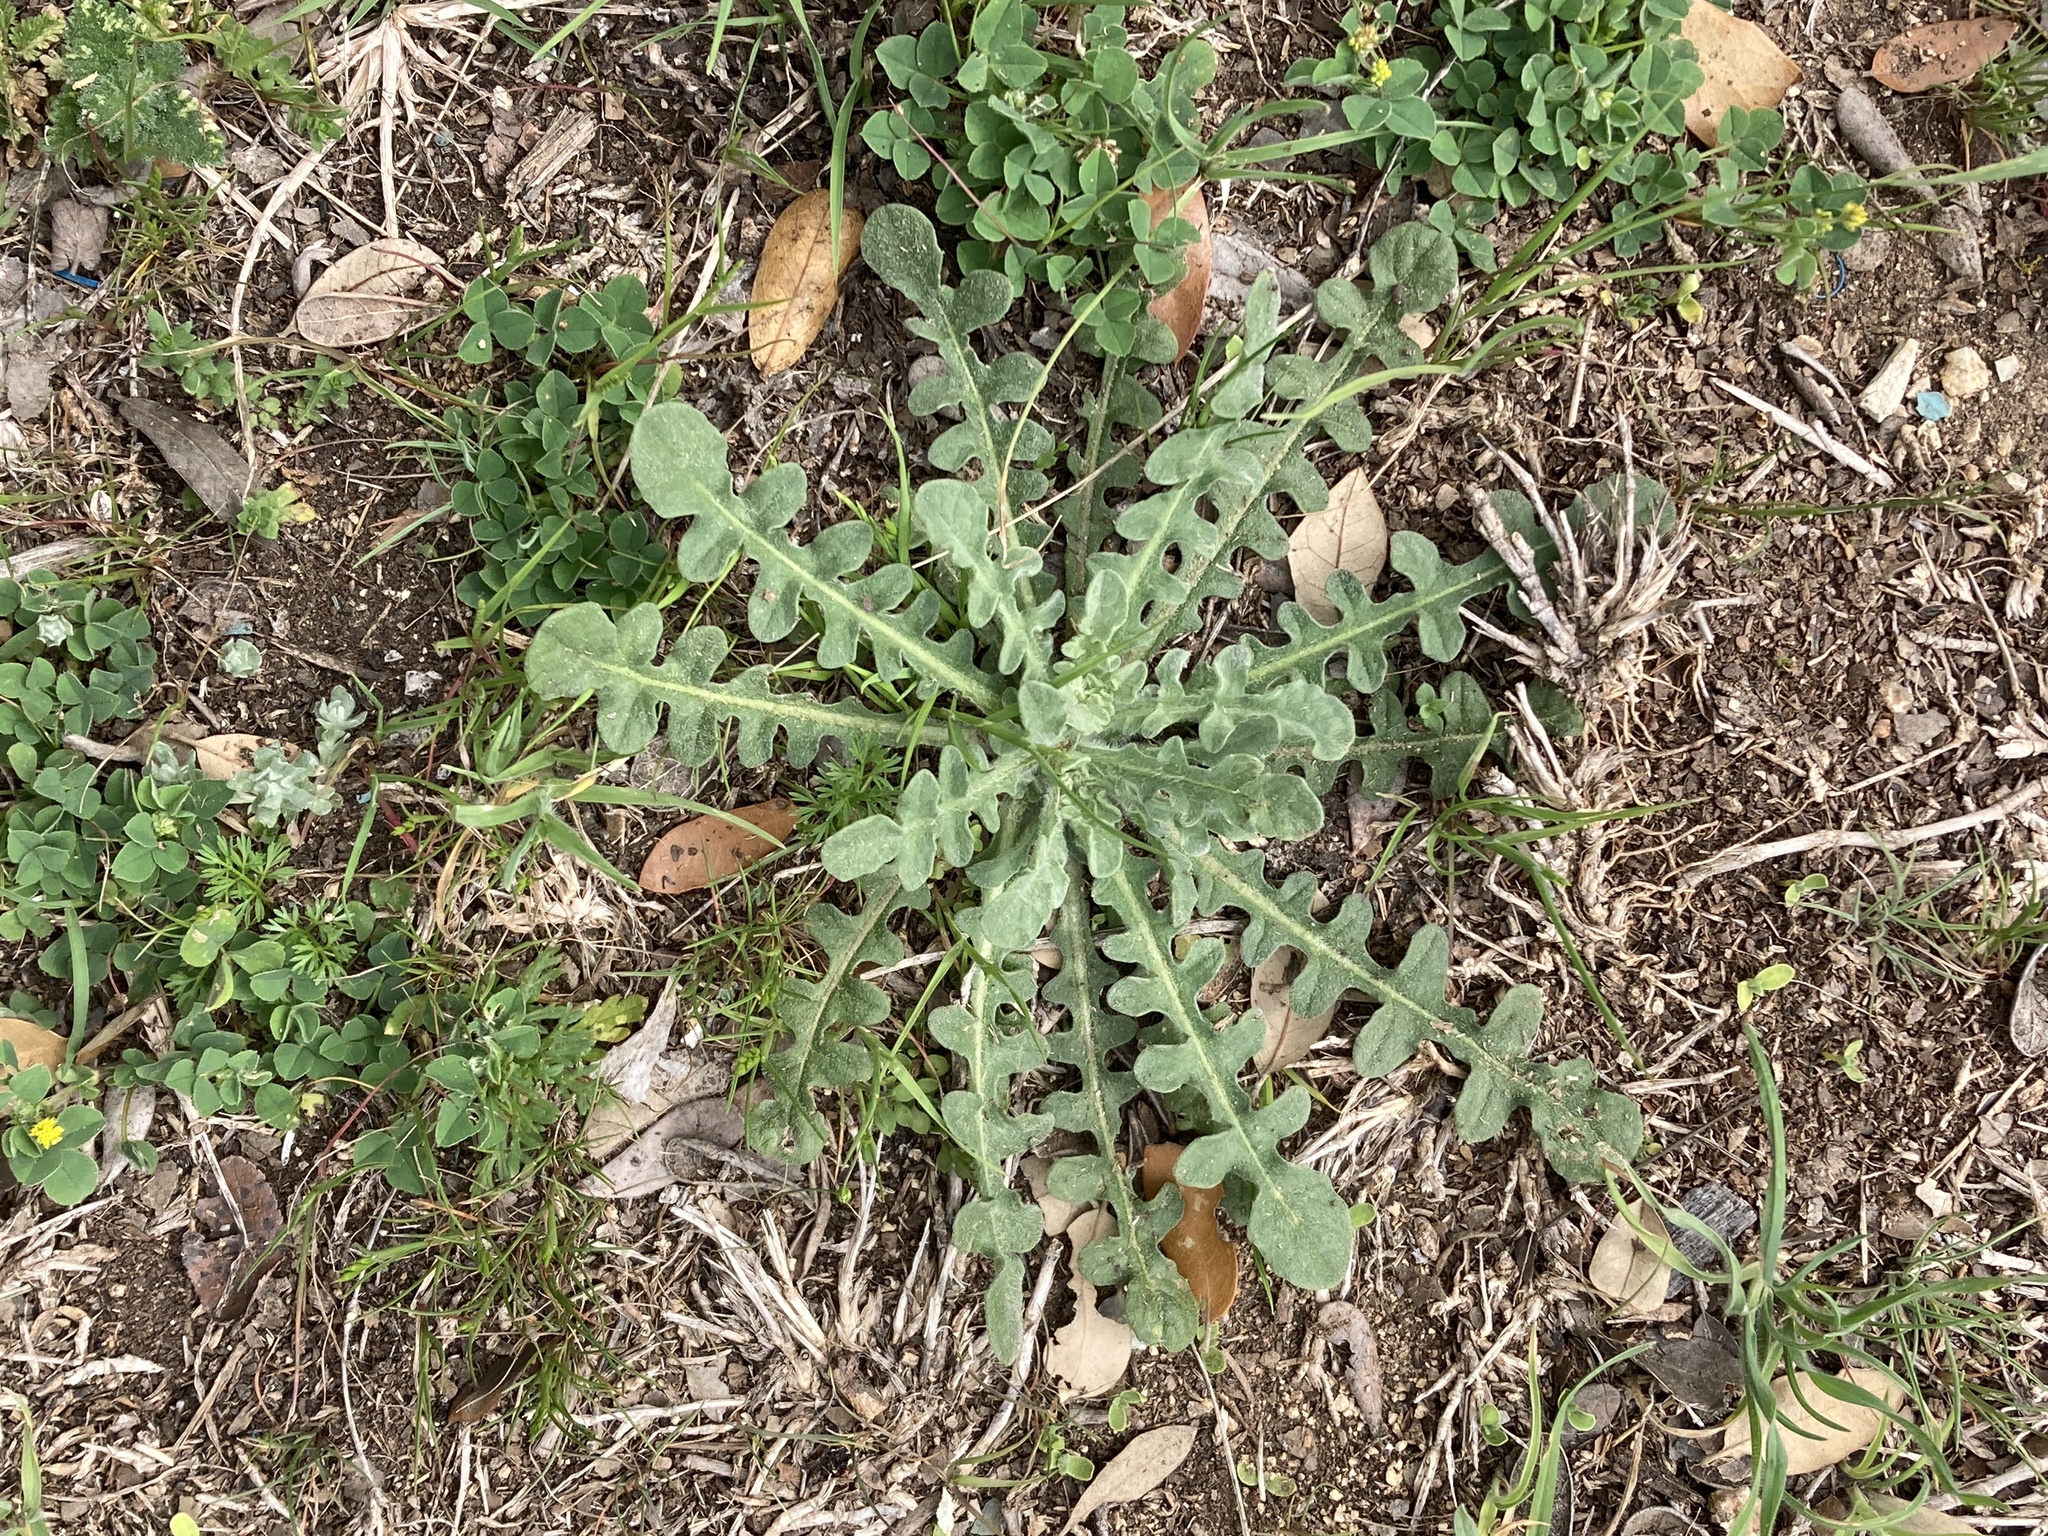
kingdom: Plantae
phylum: Tracheophyta
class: Magnoliopsida
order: Asterales
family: Asteraceae
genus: Centaurea
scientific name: Centaurea melitensis
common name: Maltese star-thistle
